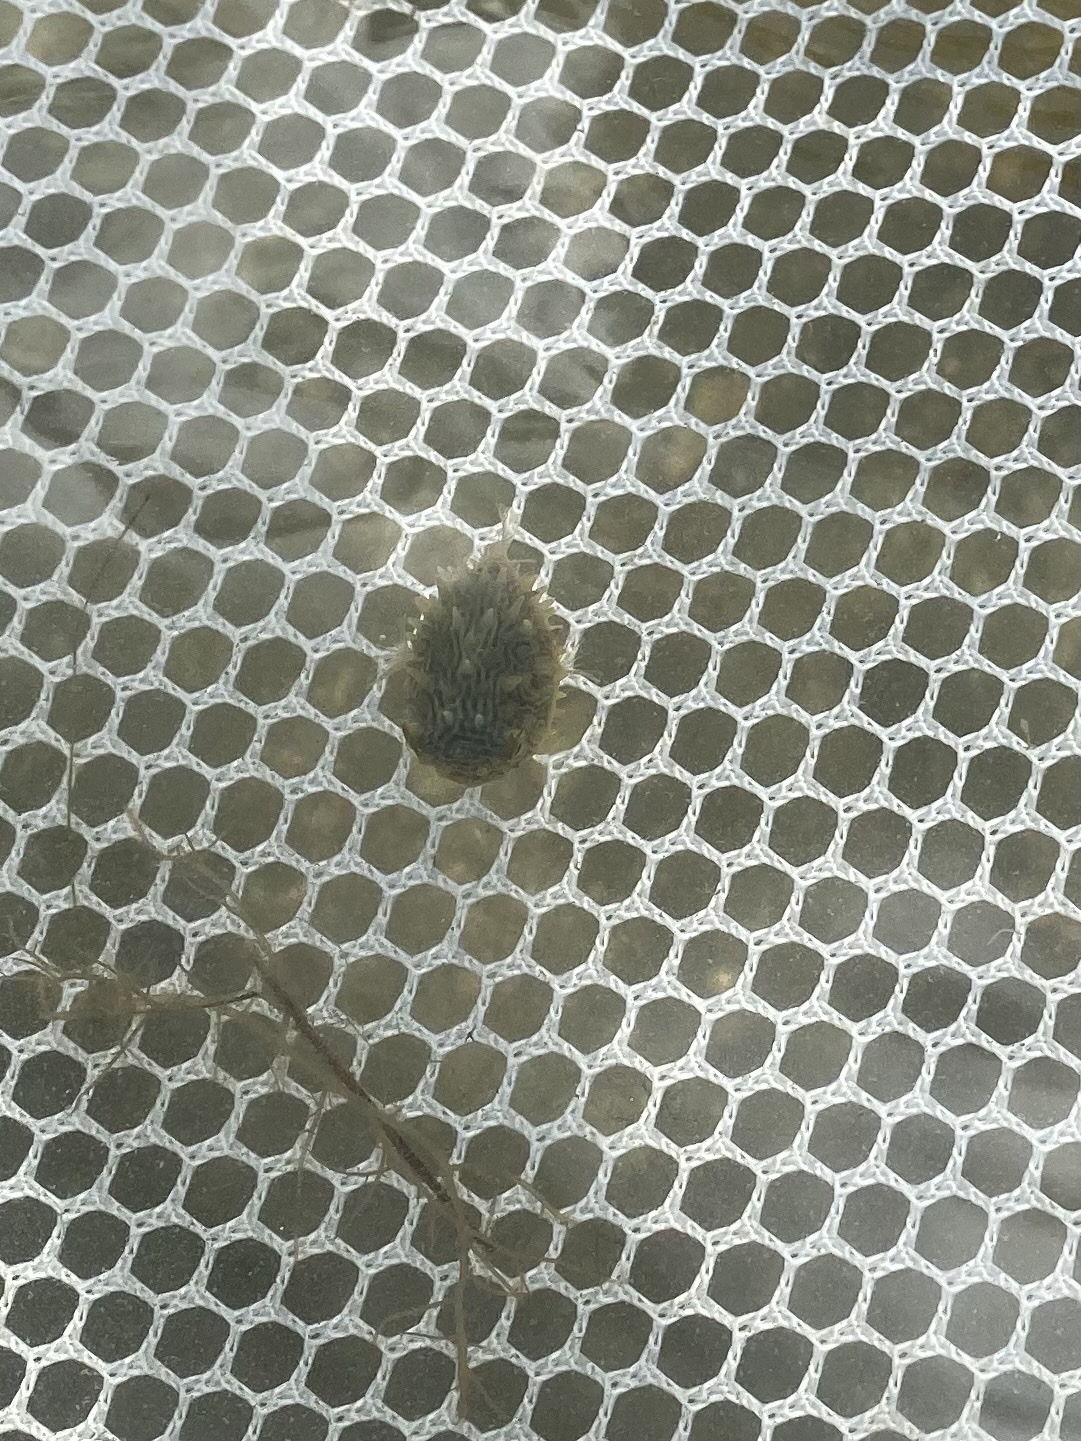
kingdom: Animalia
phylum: Chordata
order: Tetraodontiformes
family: Diodontidae
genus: Chilomycterus
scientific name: Chilomycterus schoepfii
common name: Striped burrfish
